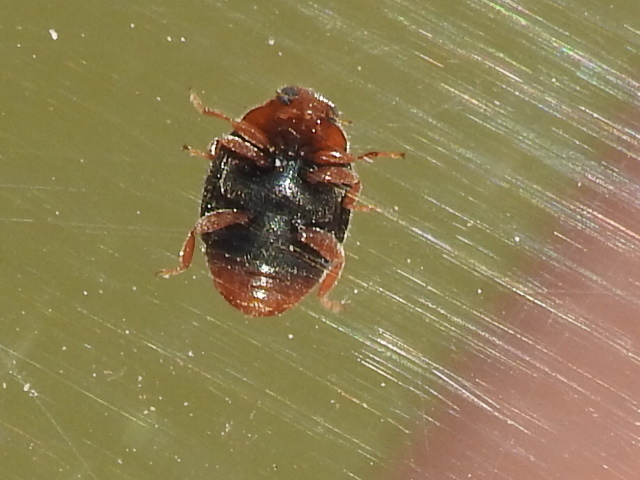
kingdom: Animalia
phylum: Arthropoda
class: Insecta
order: Coleoptera
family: Coccinellidae
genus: Scymnus
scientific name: Scymnus louisianae
